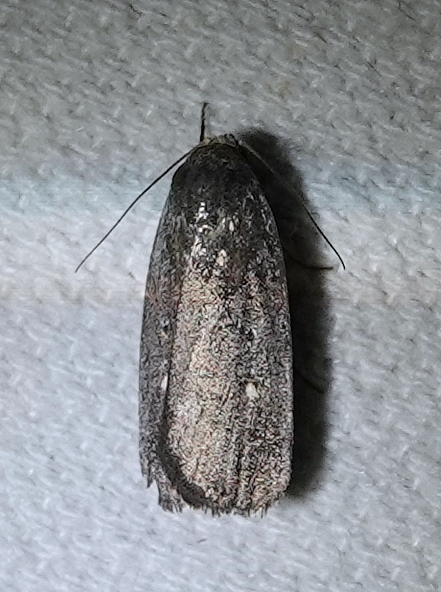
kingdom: Animalia
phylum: Arthropoda
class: Insecta
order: Lepidoptera
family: Noctuidae
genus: Proxenus
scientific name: Proxenus miranda
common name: Miranda moth
